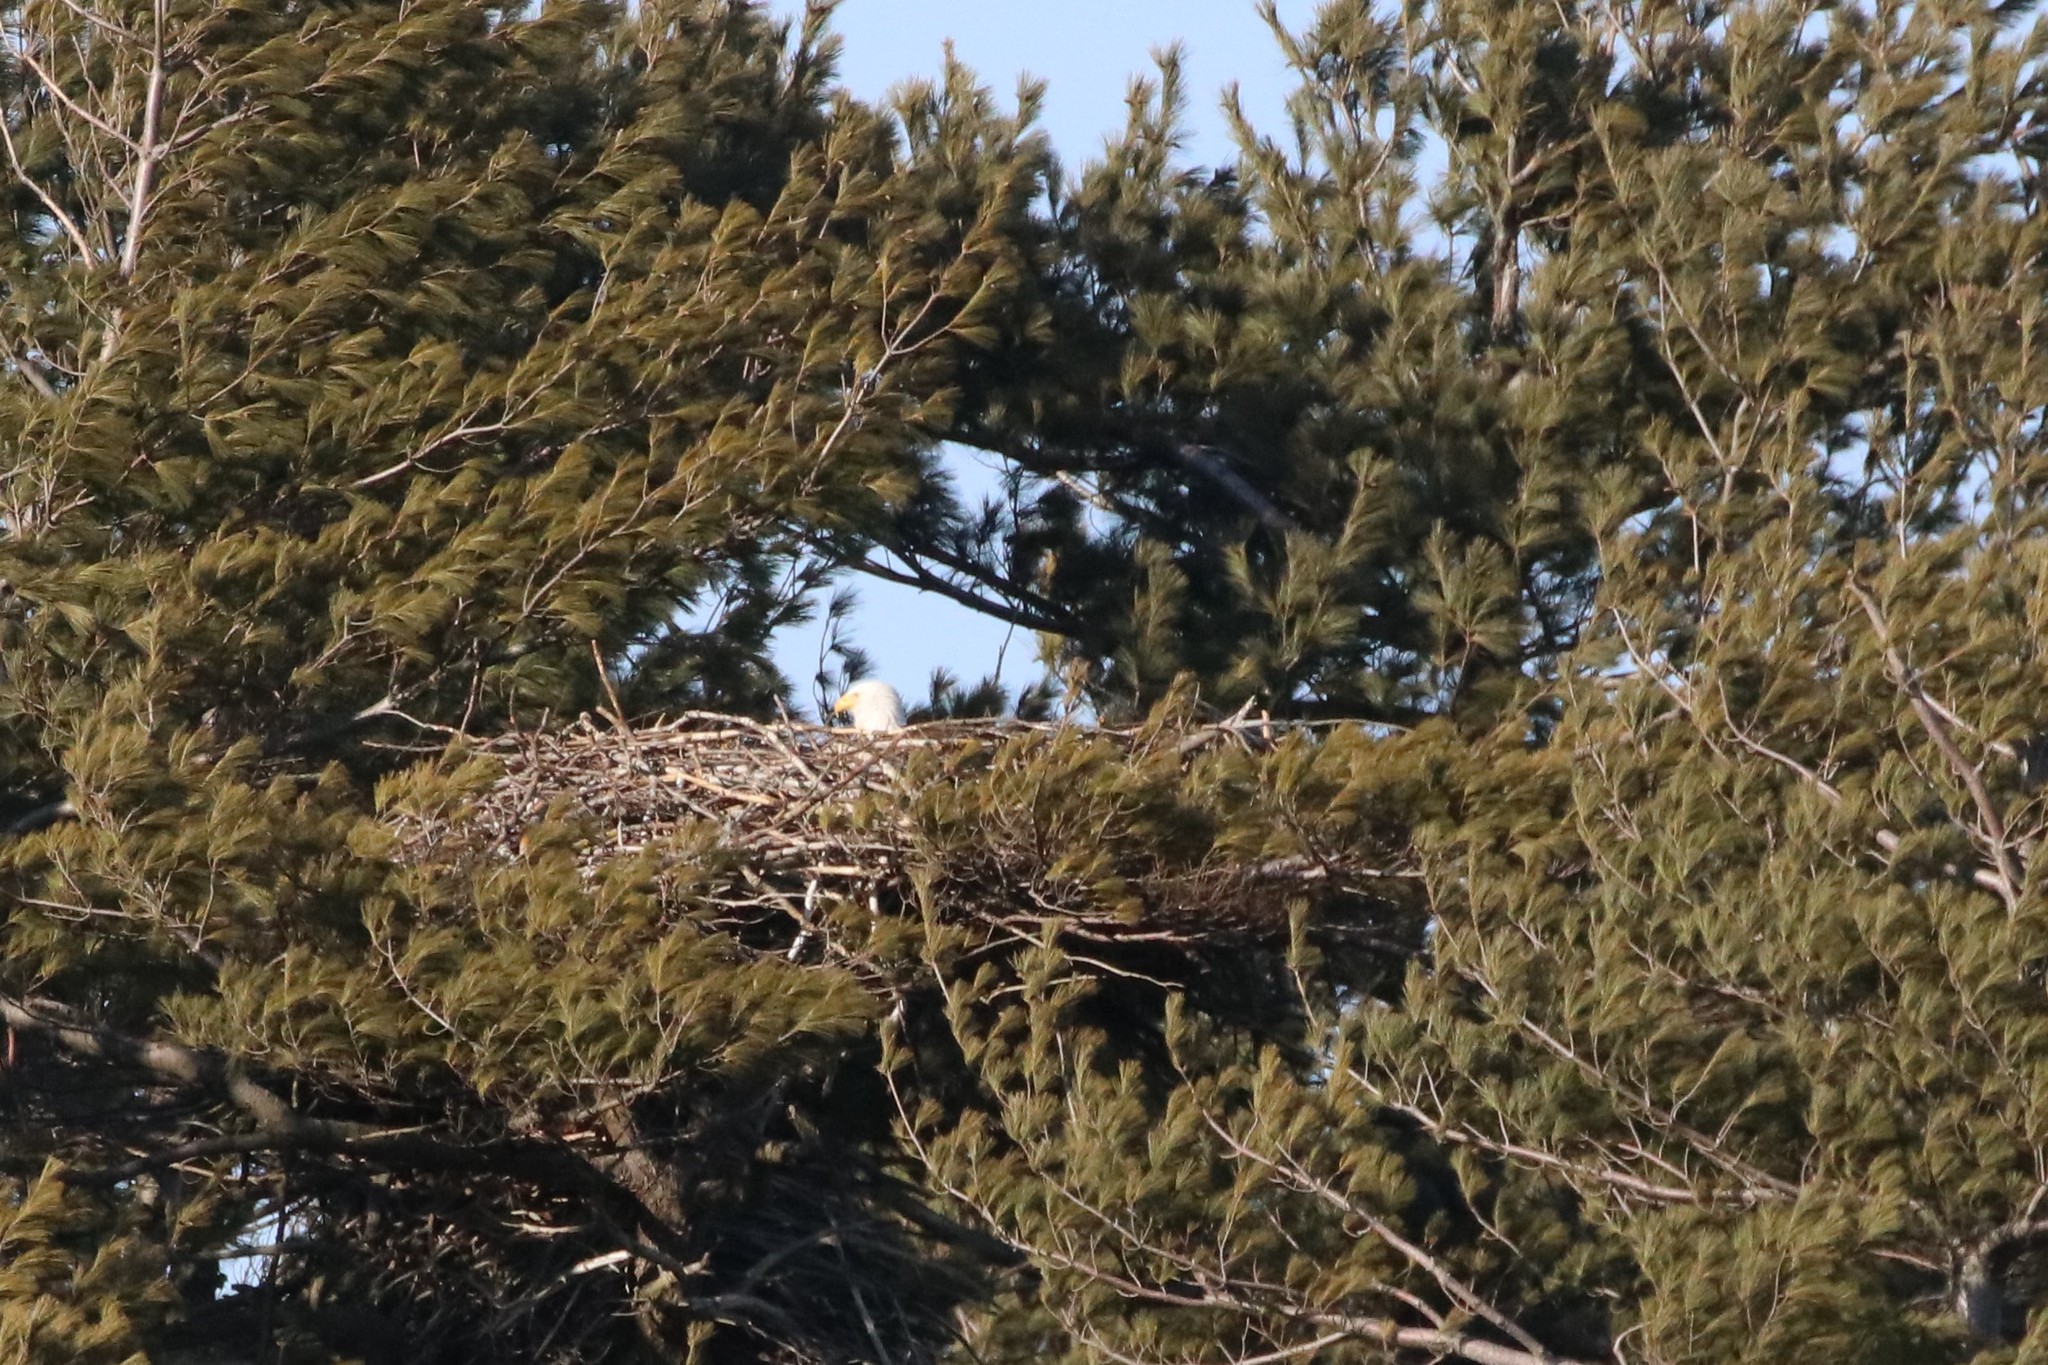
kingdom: Animalia
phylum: Chordata
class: Aves
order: Accipitriformes
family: Accipitridae
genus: Haliaeetus
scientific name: Haliaeetus leucocephalus
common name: Bald eagle
